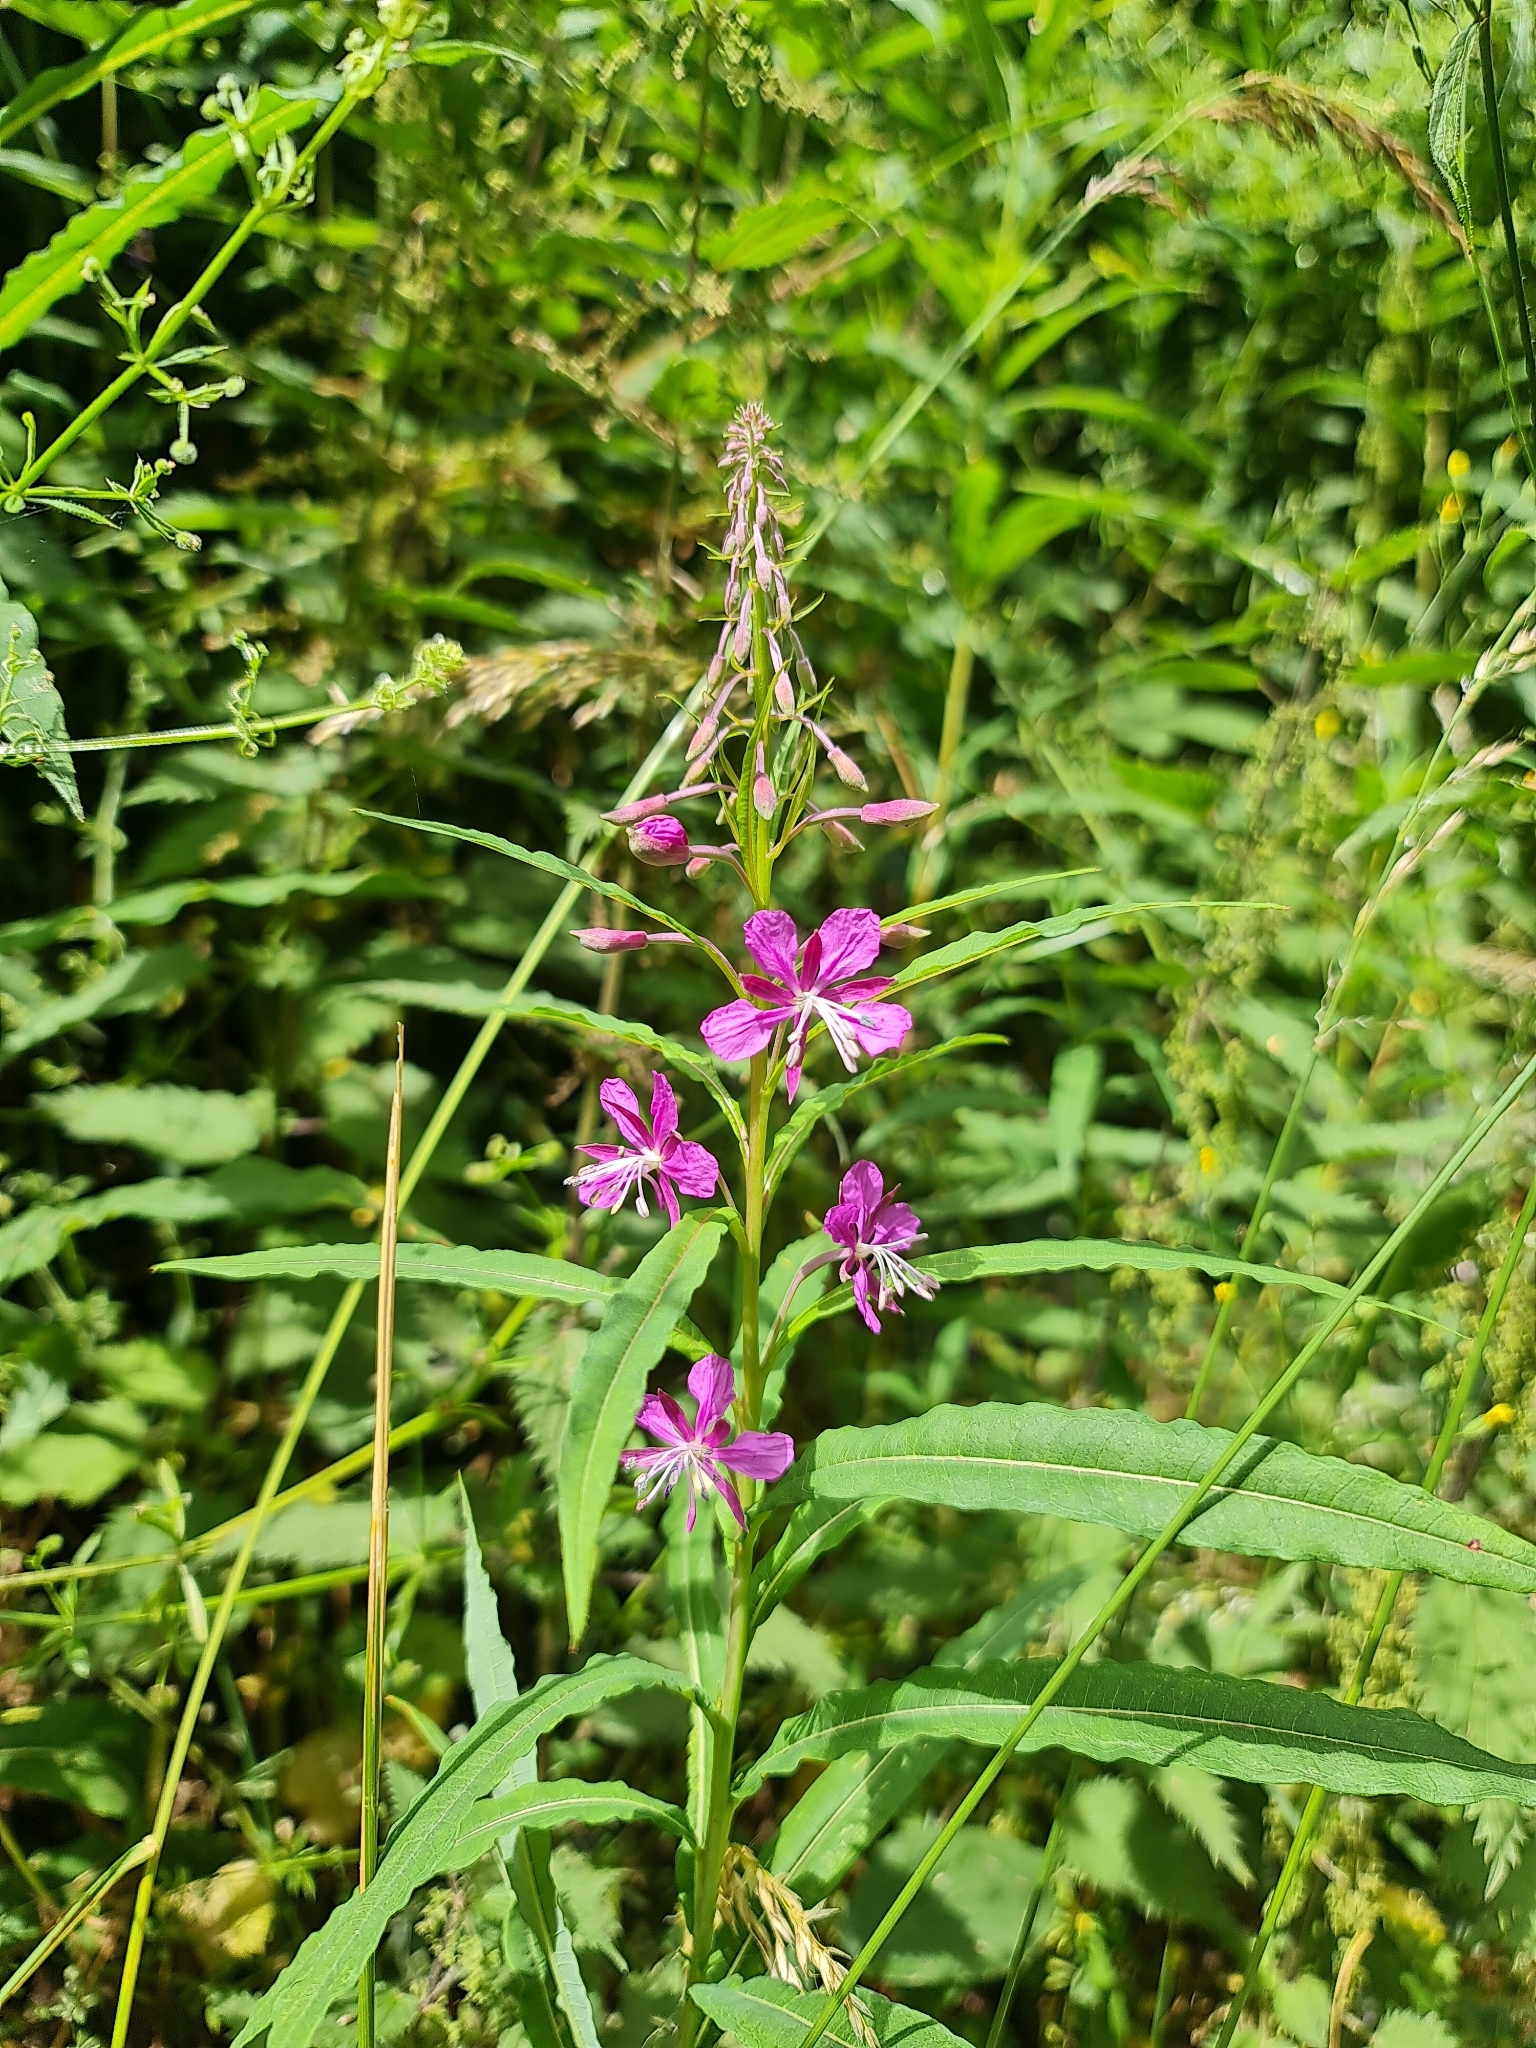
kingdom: Plantae
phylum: Tracheophyta
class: Magnoliopsida
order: Myrtales
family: Onagraceae
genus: Chamaenerion
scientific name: Chamaenerion angustifolium
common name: Fireweed
